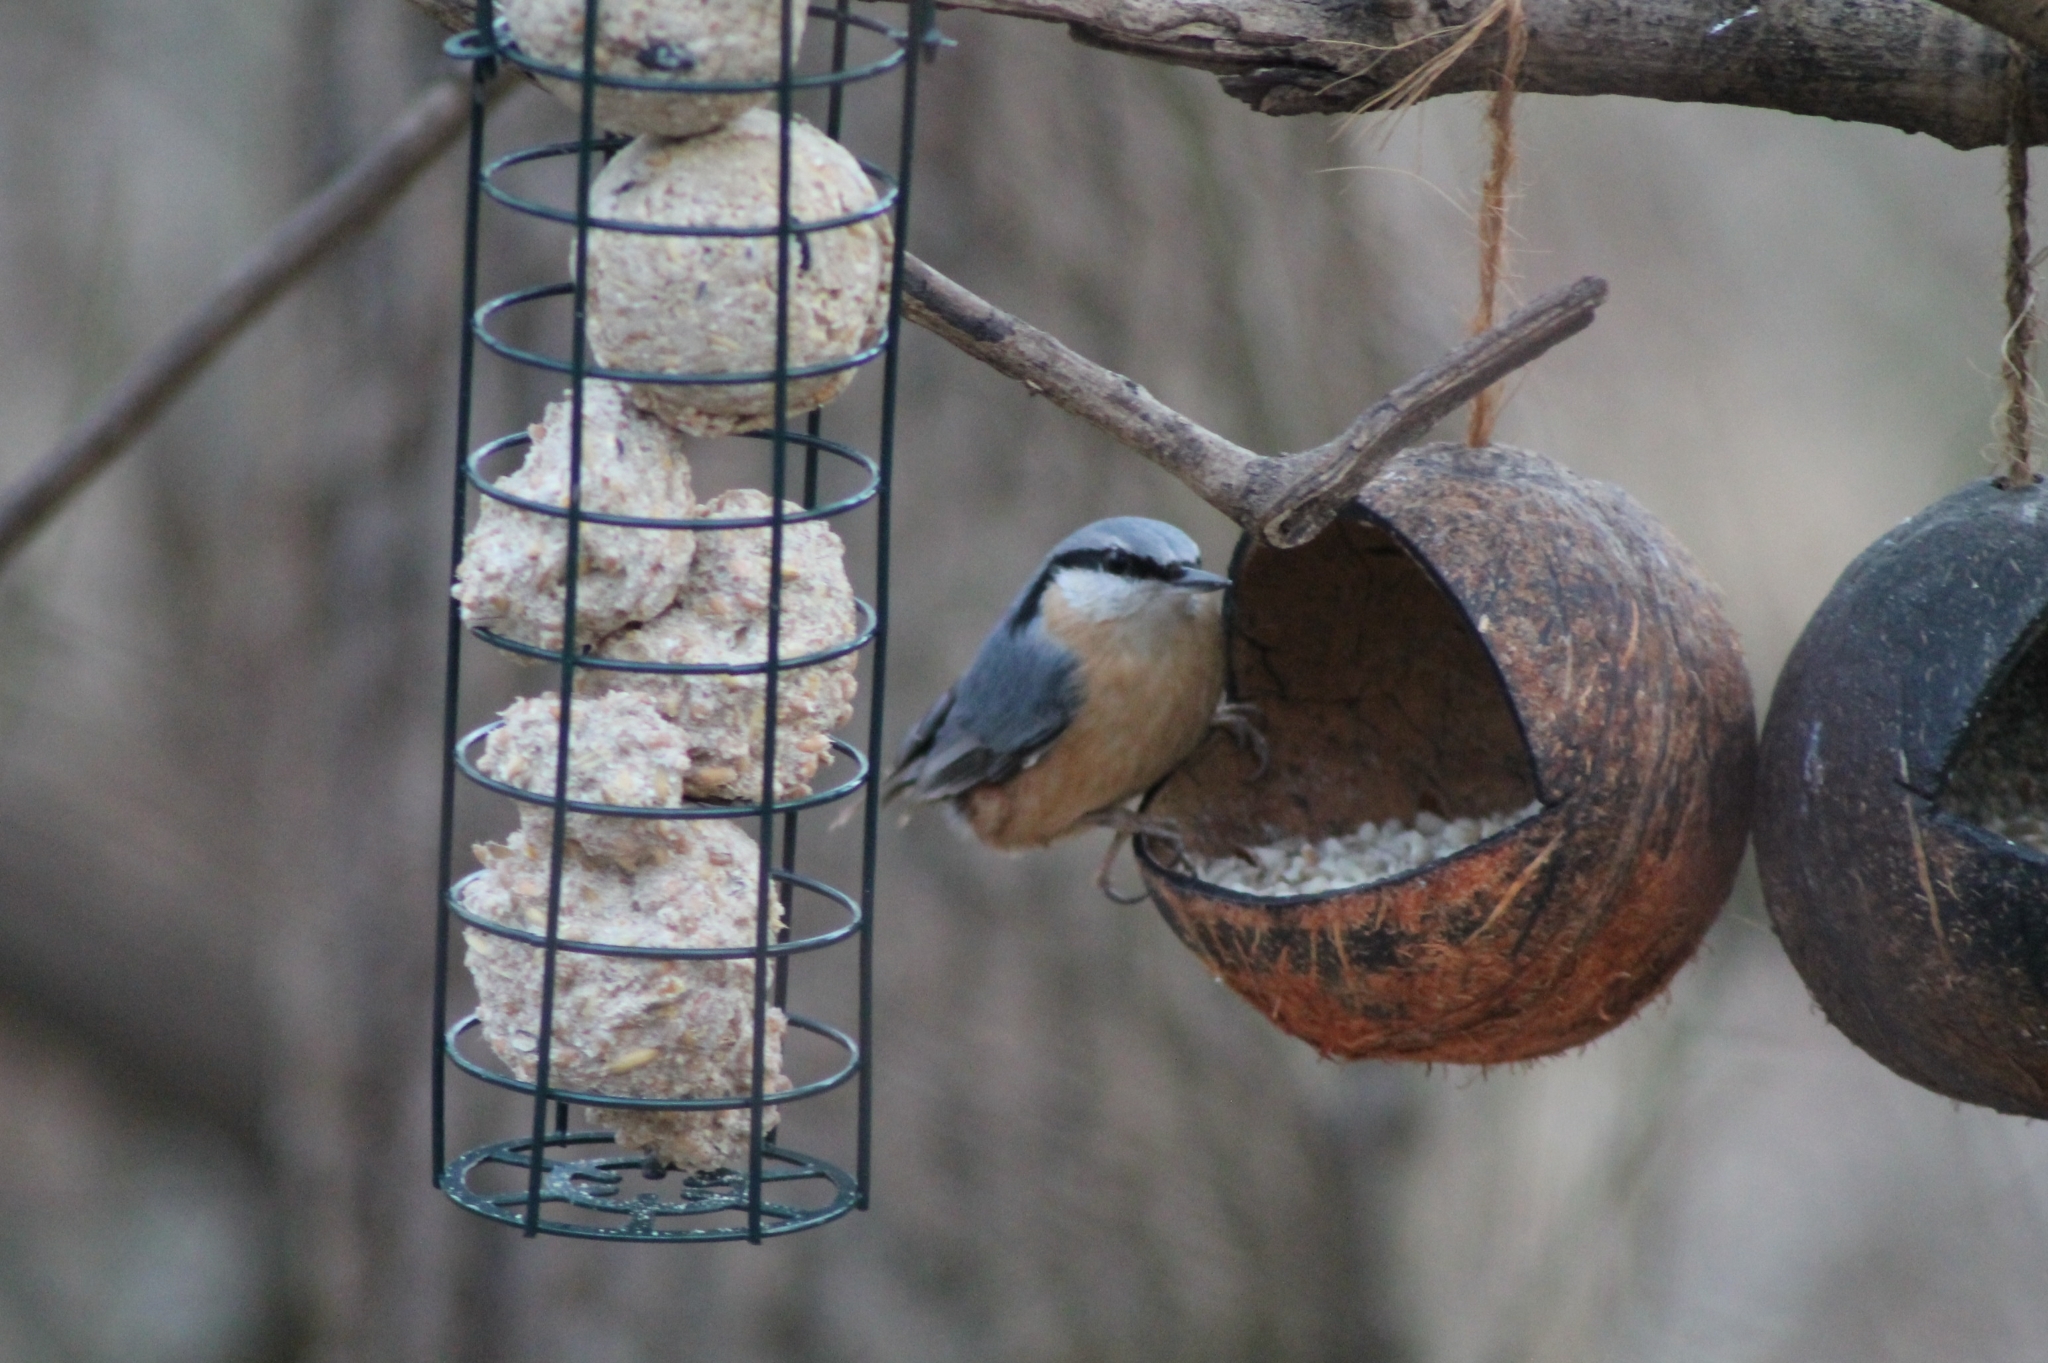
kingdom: Animalia
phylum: Chordata
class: Aves
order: Passeriformes
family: Sittidae
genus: Sitta
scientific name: Sitta europaea
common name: Eurasian nuthatch
